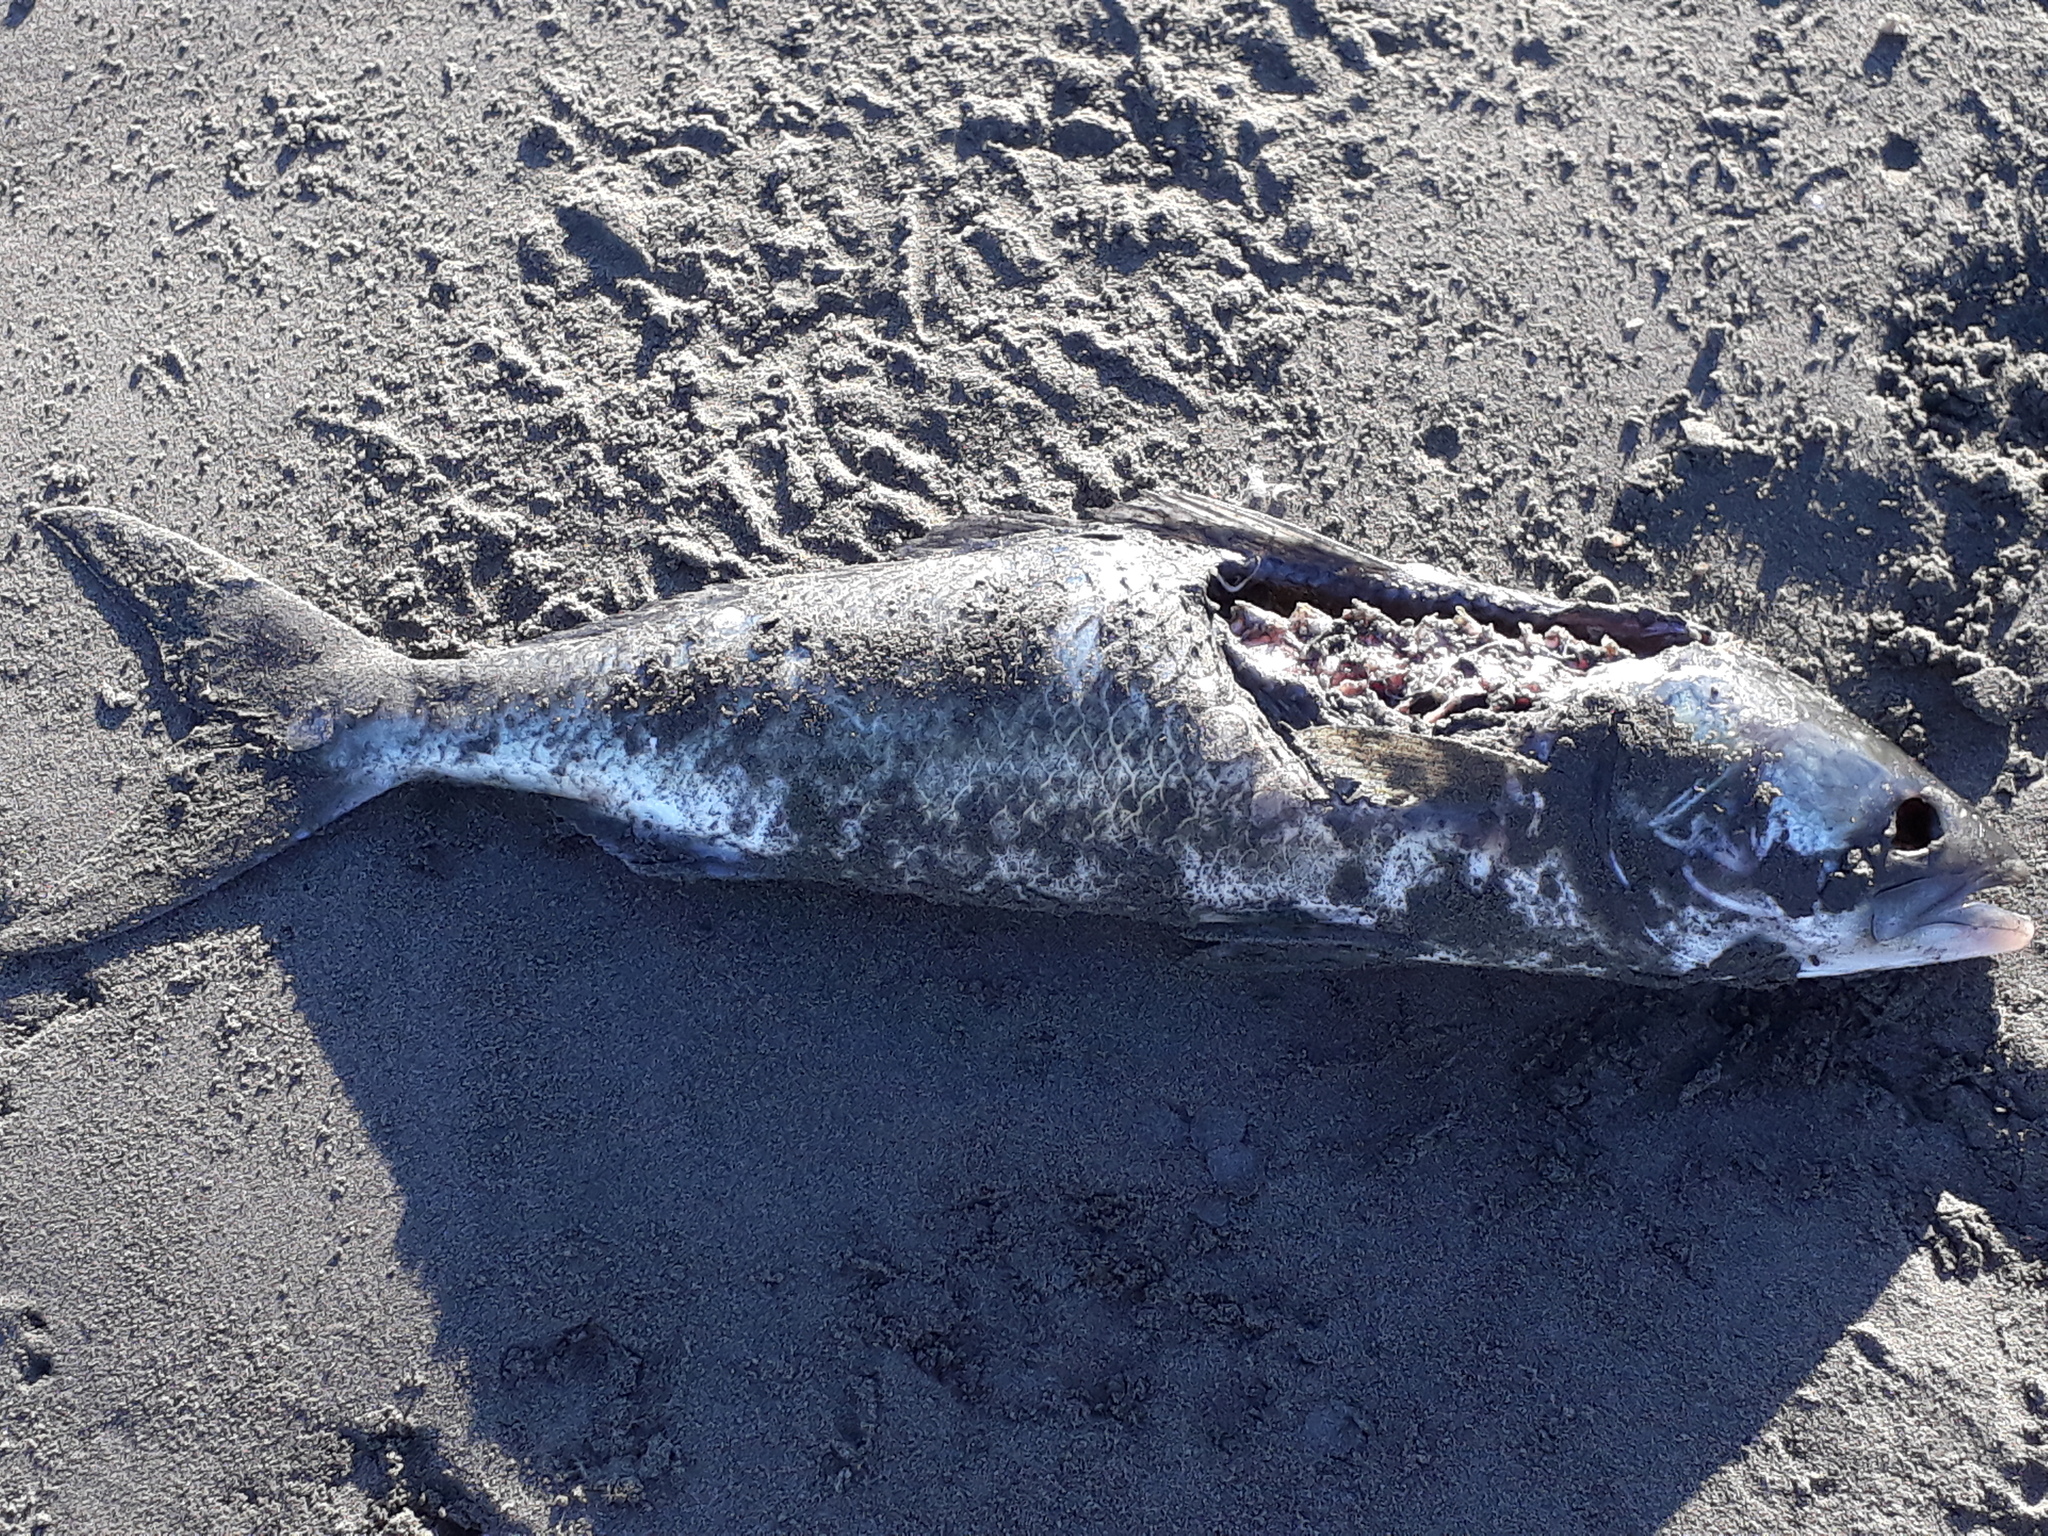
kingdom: Animalia
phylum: Chordata
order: Perciformes
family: Arripidae
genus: Arripis
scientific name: Arripis trutta
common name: Kahawai
